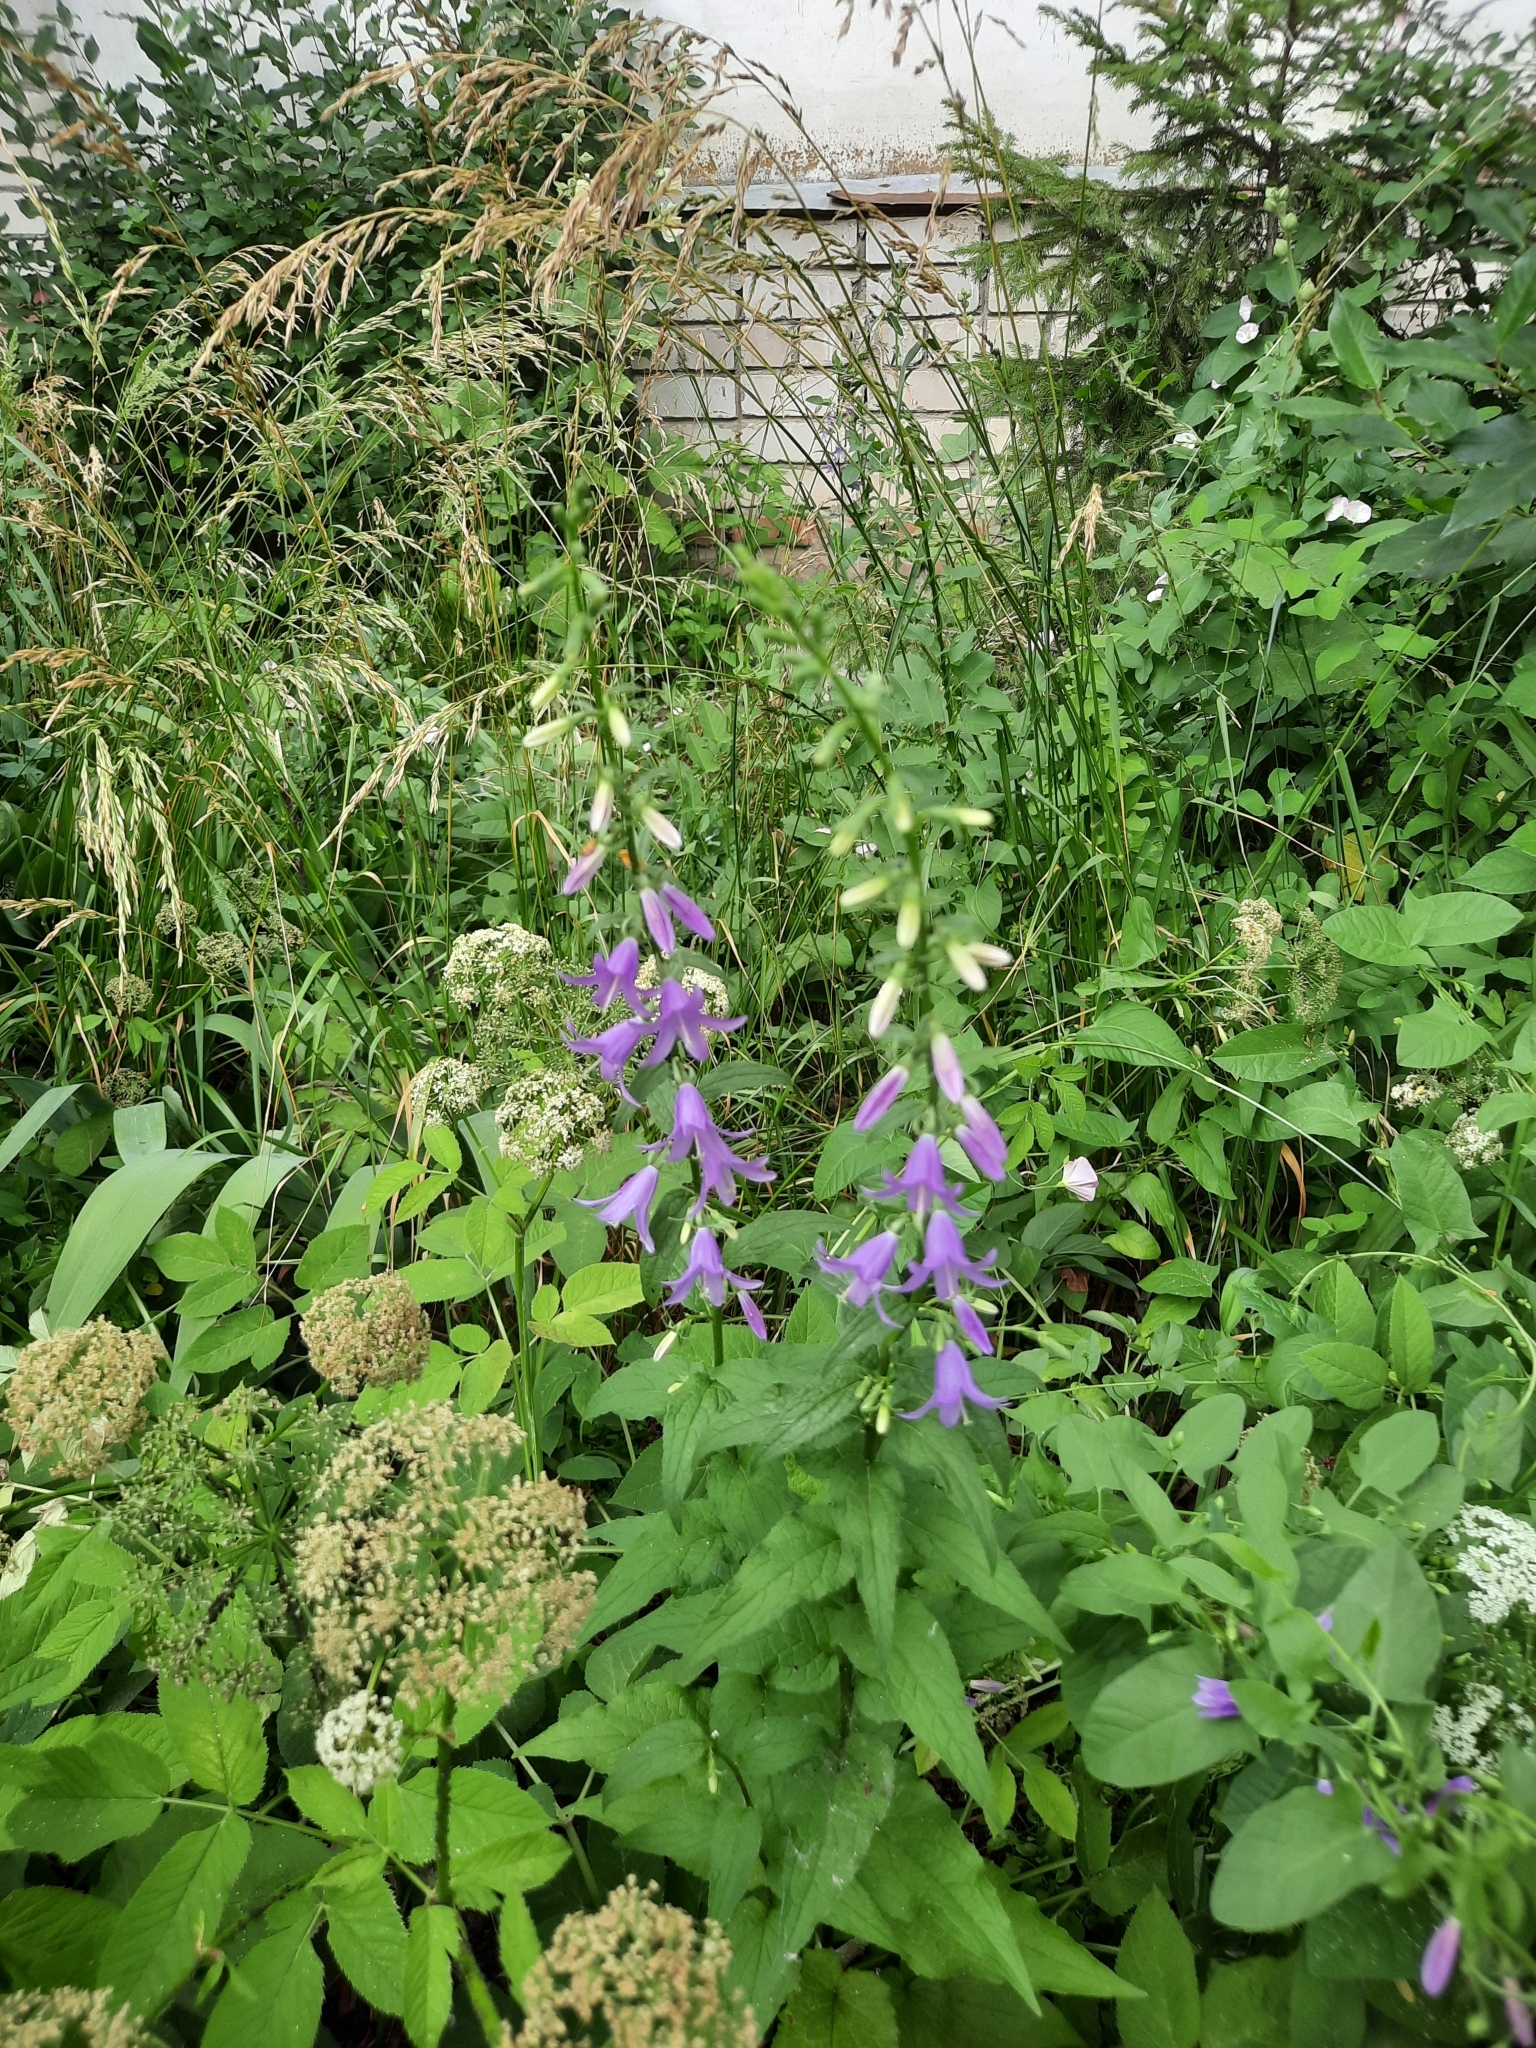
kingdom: Plantae
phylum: Tracheophyta
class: Magnoliopsida
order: Asterales
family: Campanulaceae
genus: Campanula
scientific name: Campanula rapunculoides
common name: Creeping bellflower
